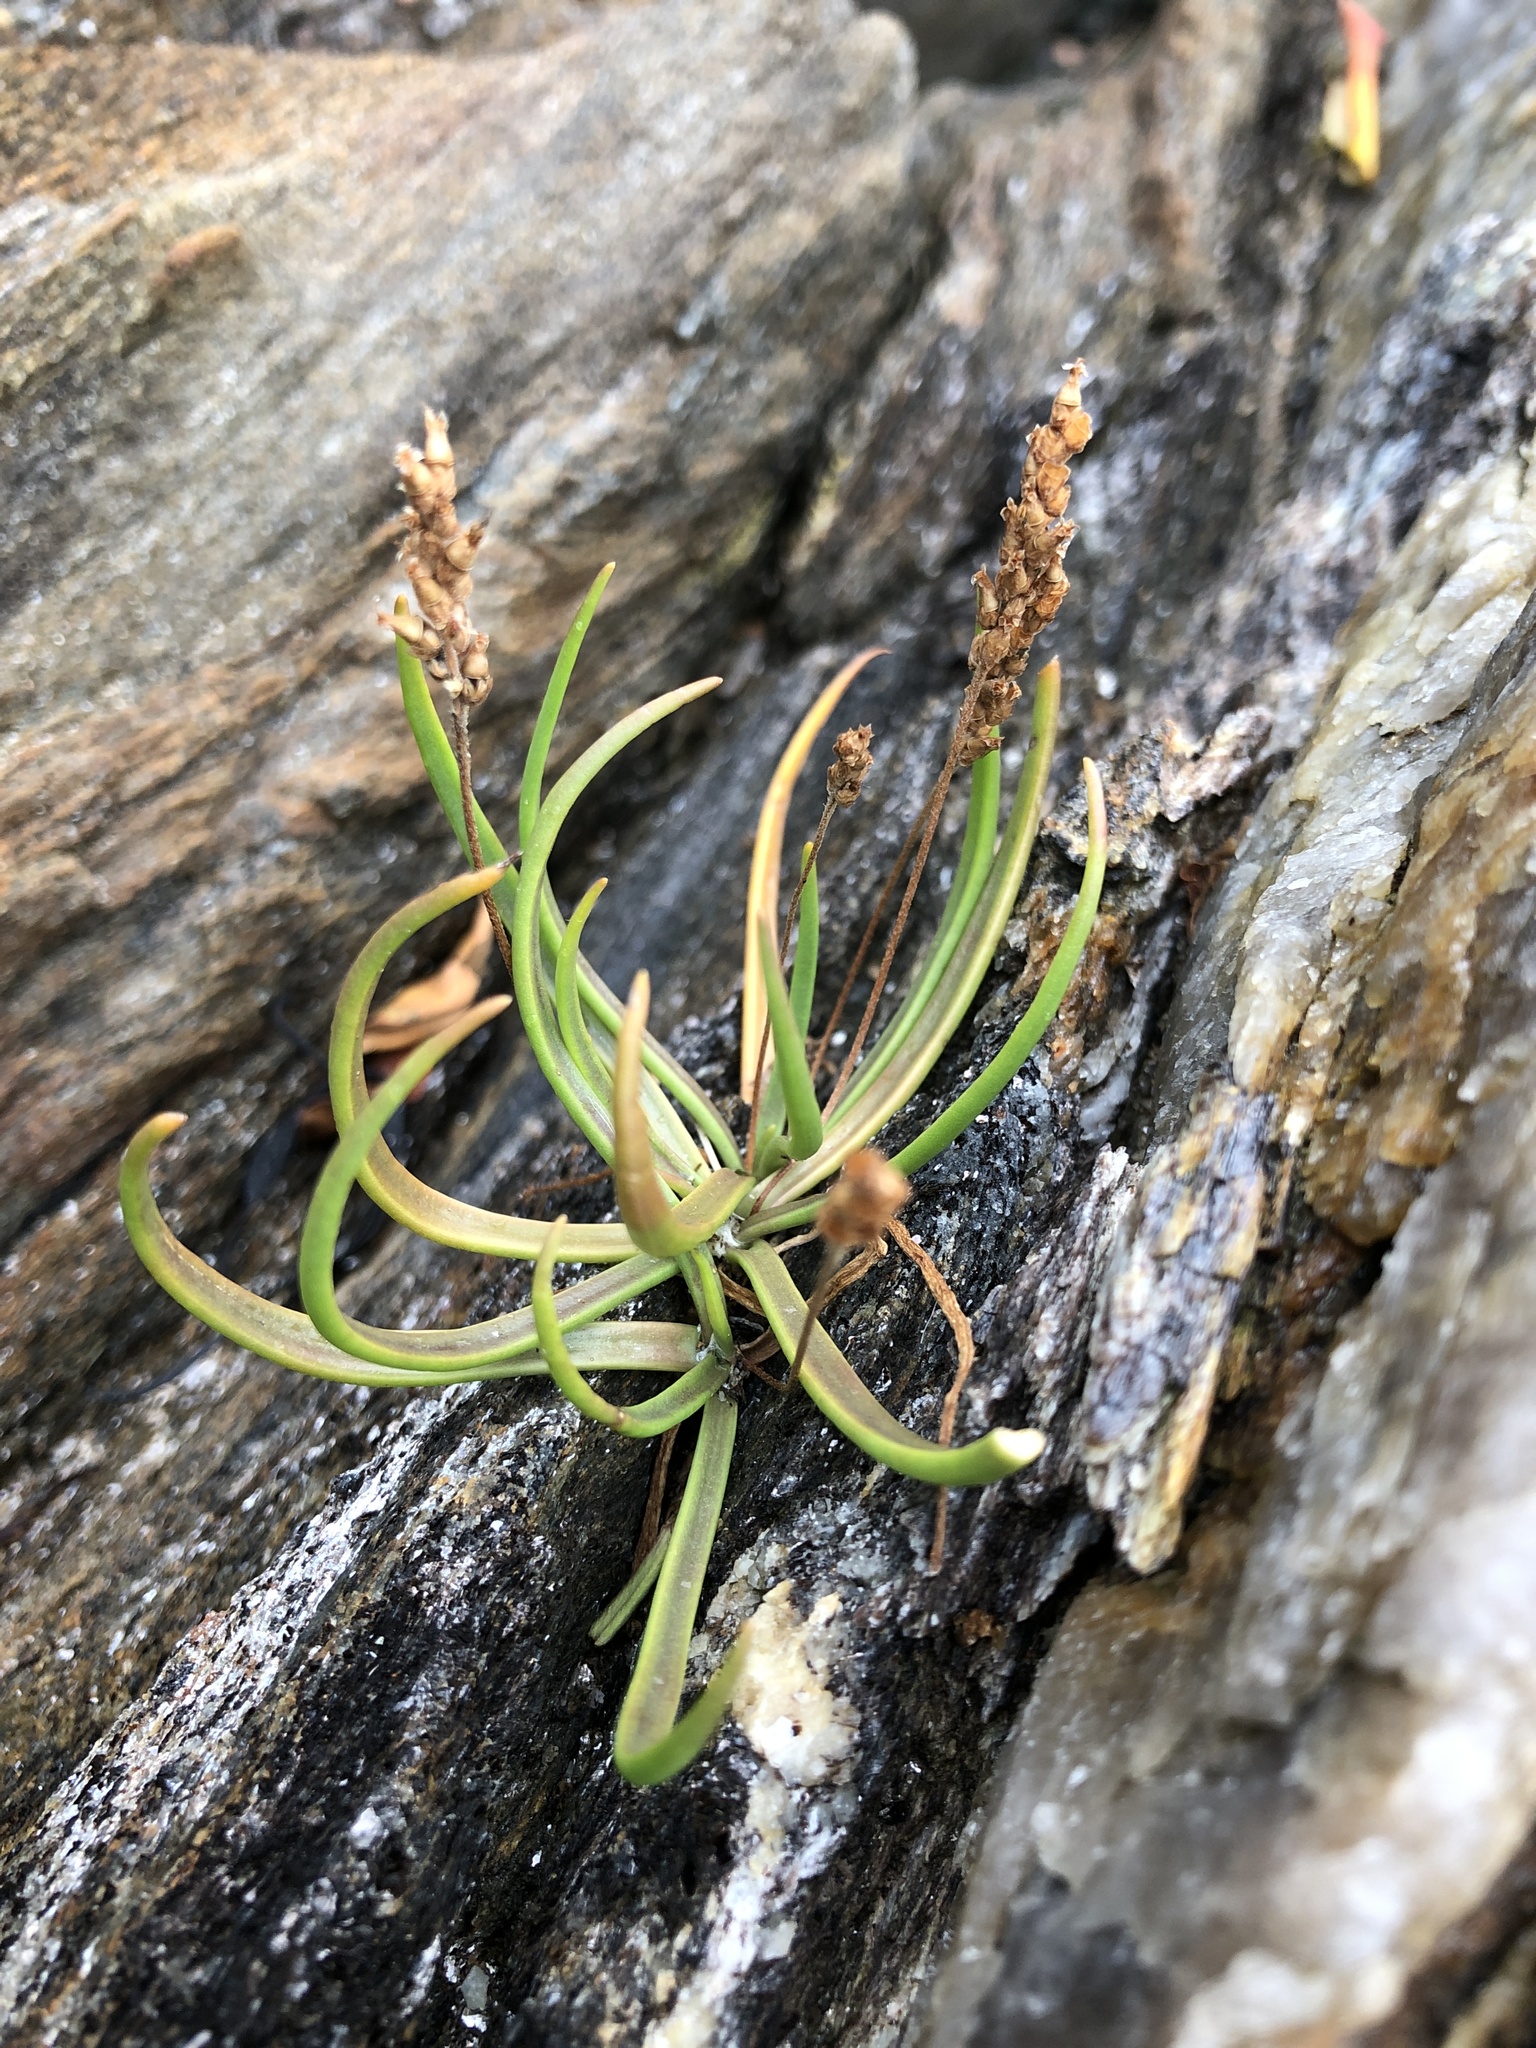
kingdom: Plantae
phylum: Tracheophyta
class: Magnoliopsida
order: Lamiales
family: Plantaginaceae
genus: Plantago
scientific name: Plantago maritima
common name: Sea plantain
